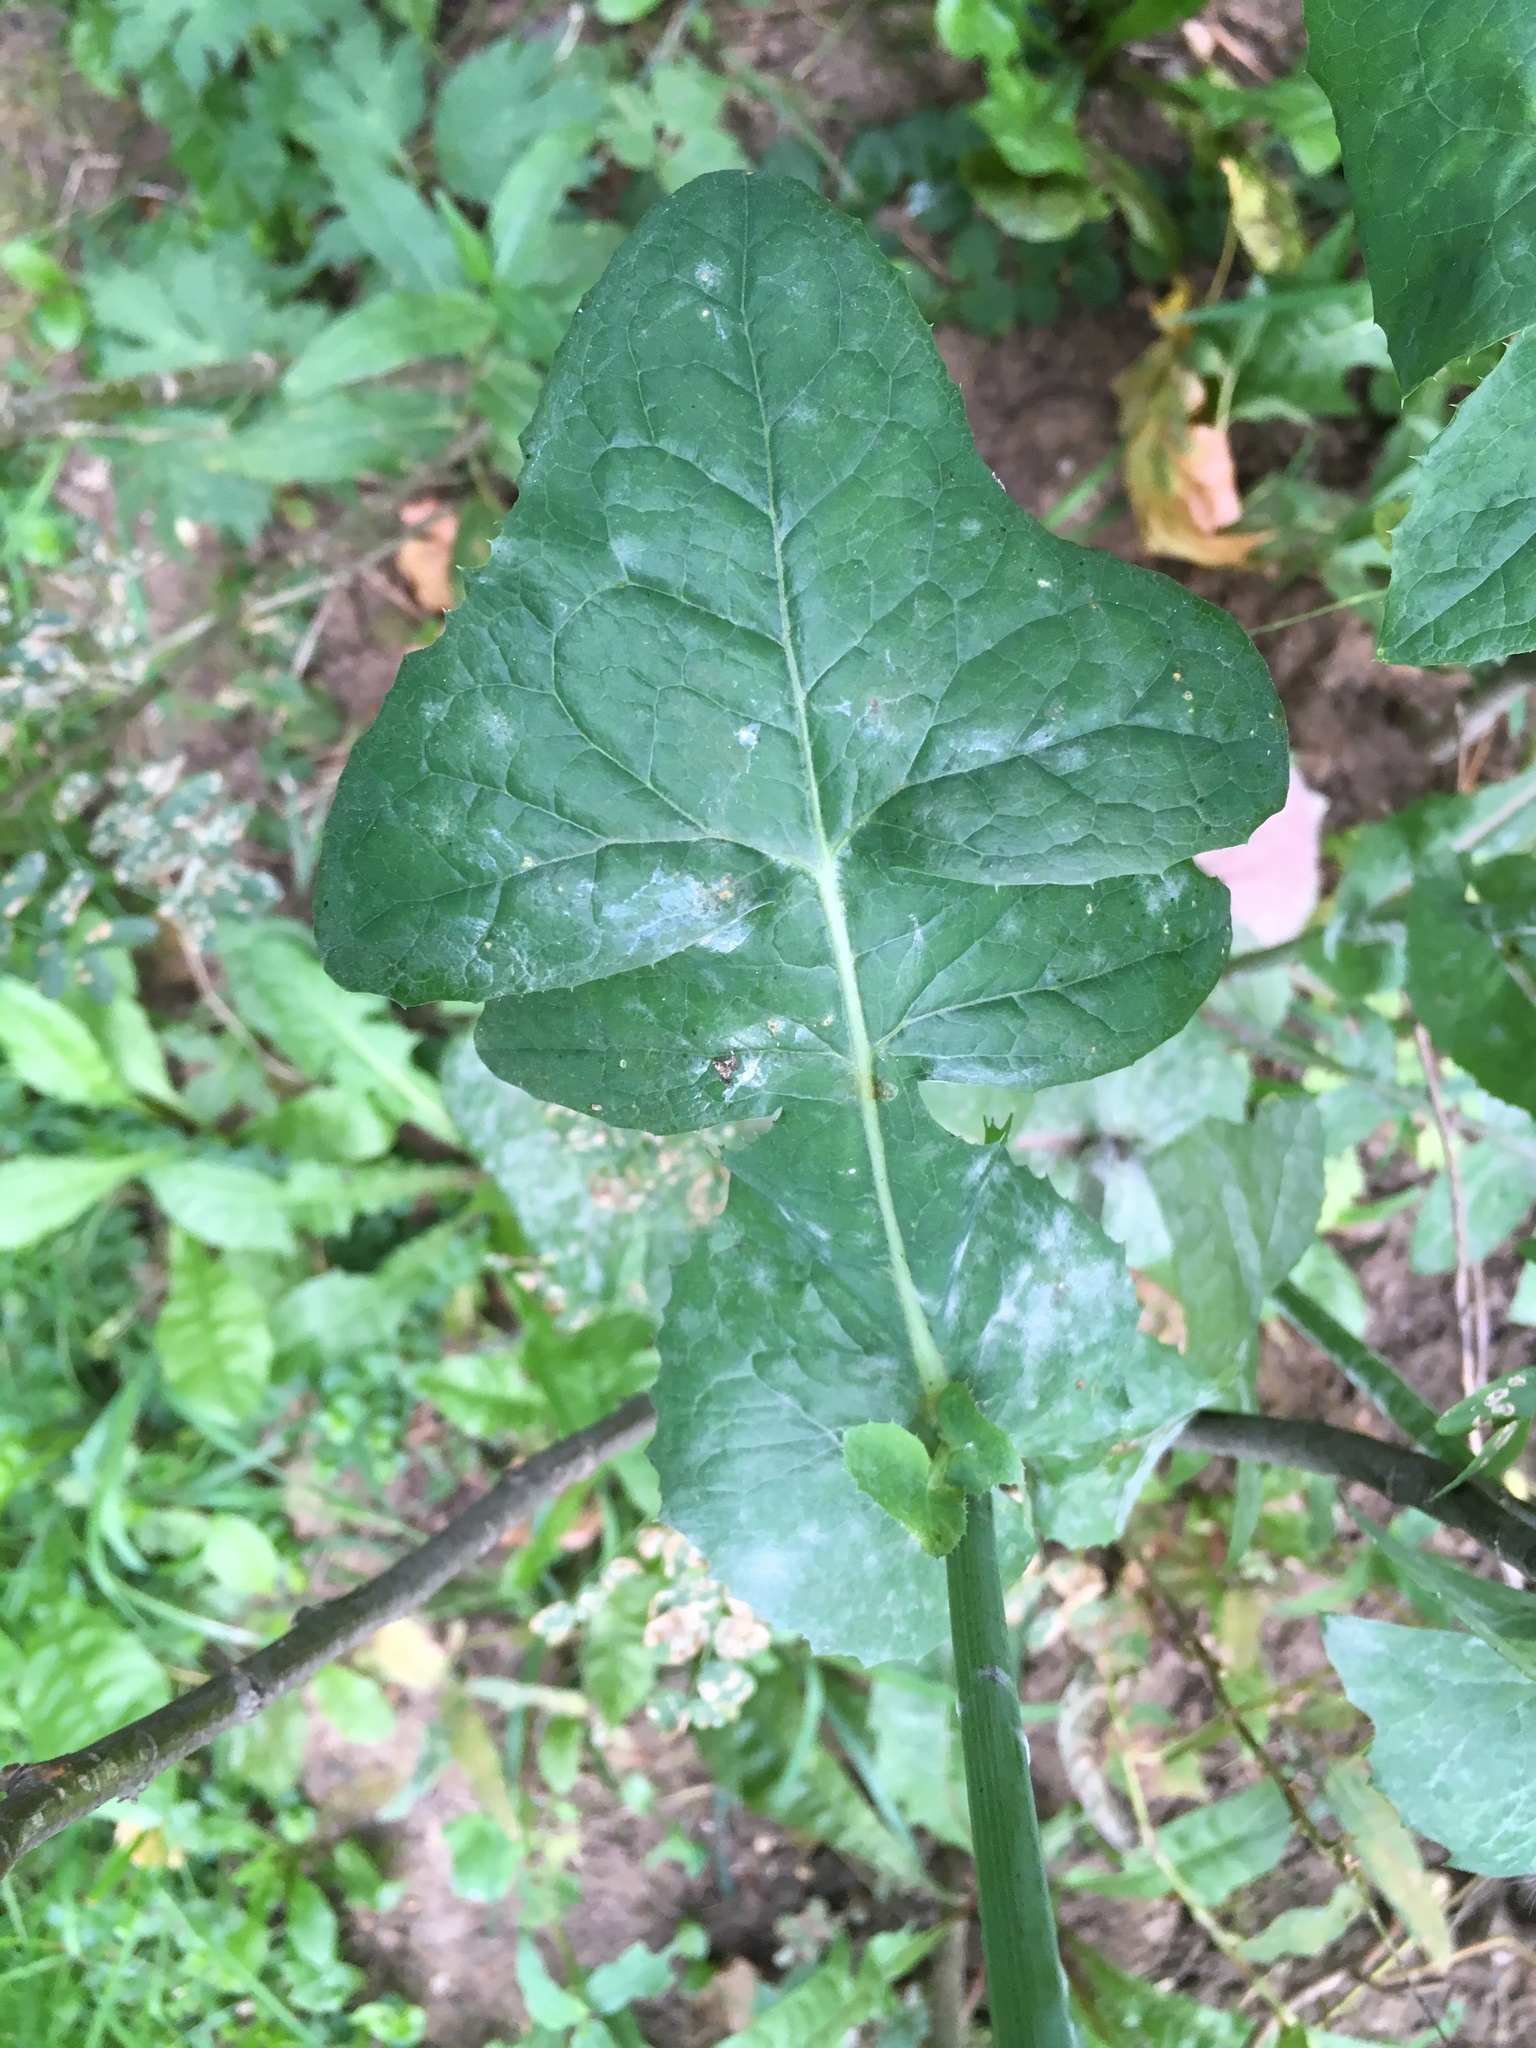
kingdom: Plantae
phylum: Tracheophyta
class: Magnoliopsida
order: Asterales
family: Asteraceae
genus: Sonchus
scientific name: Sonchus oleraceus
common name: Common sowthistle
